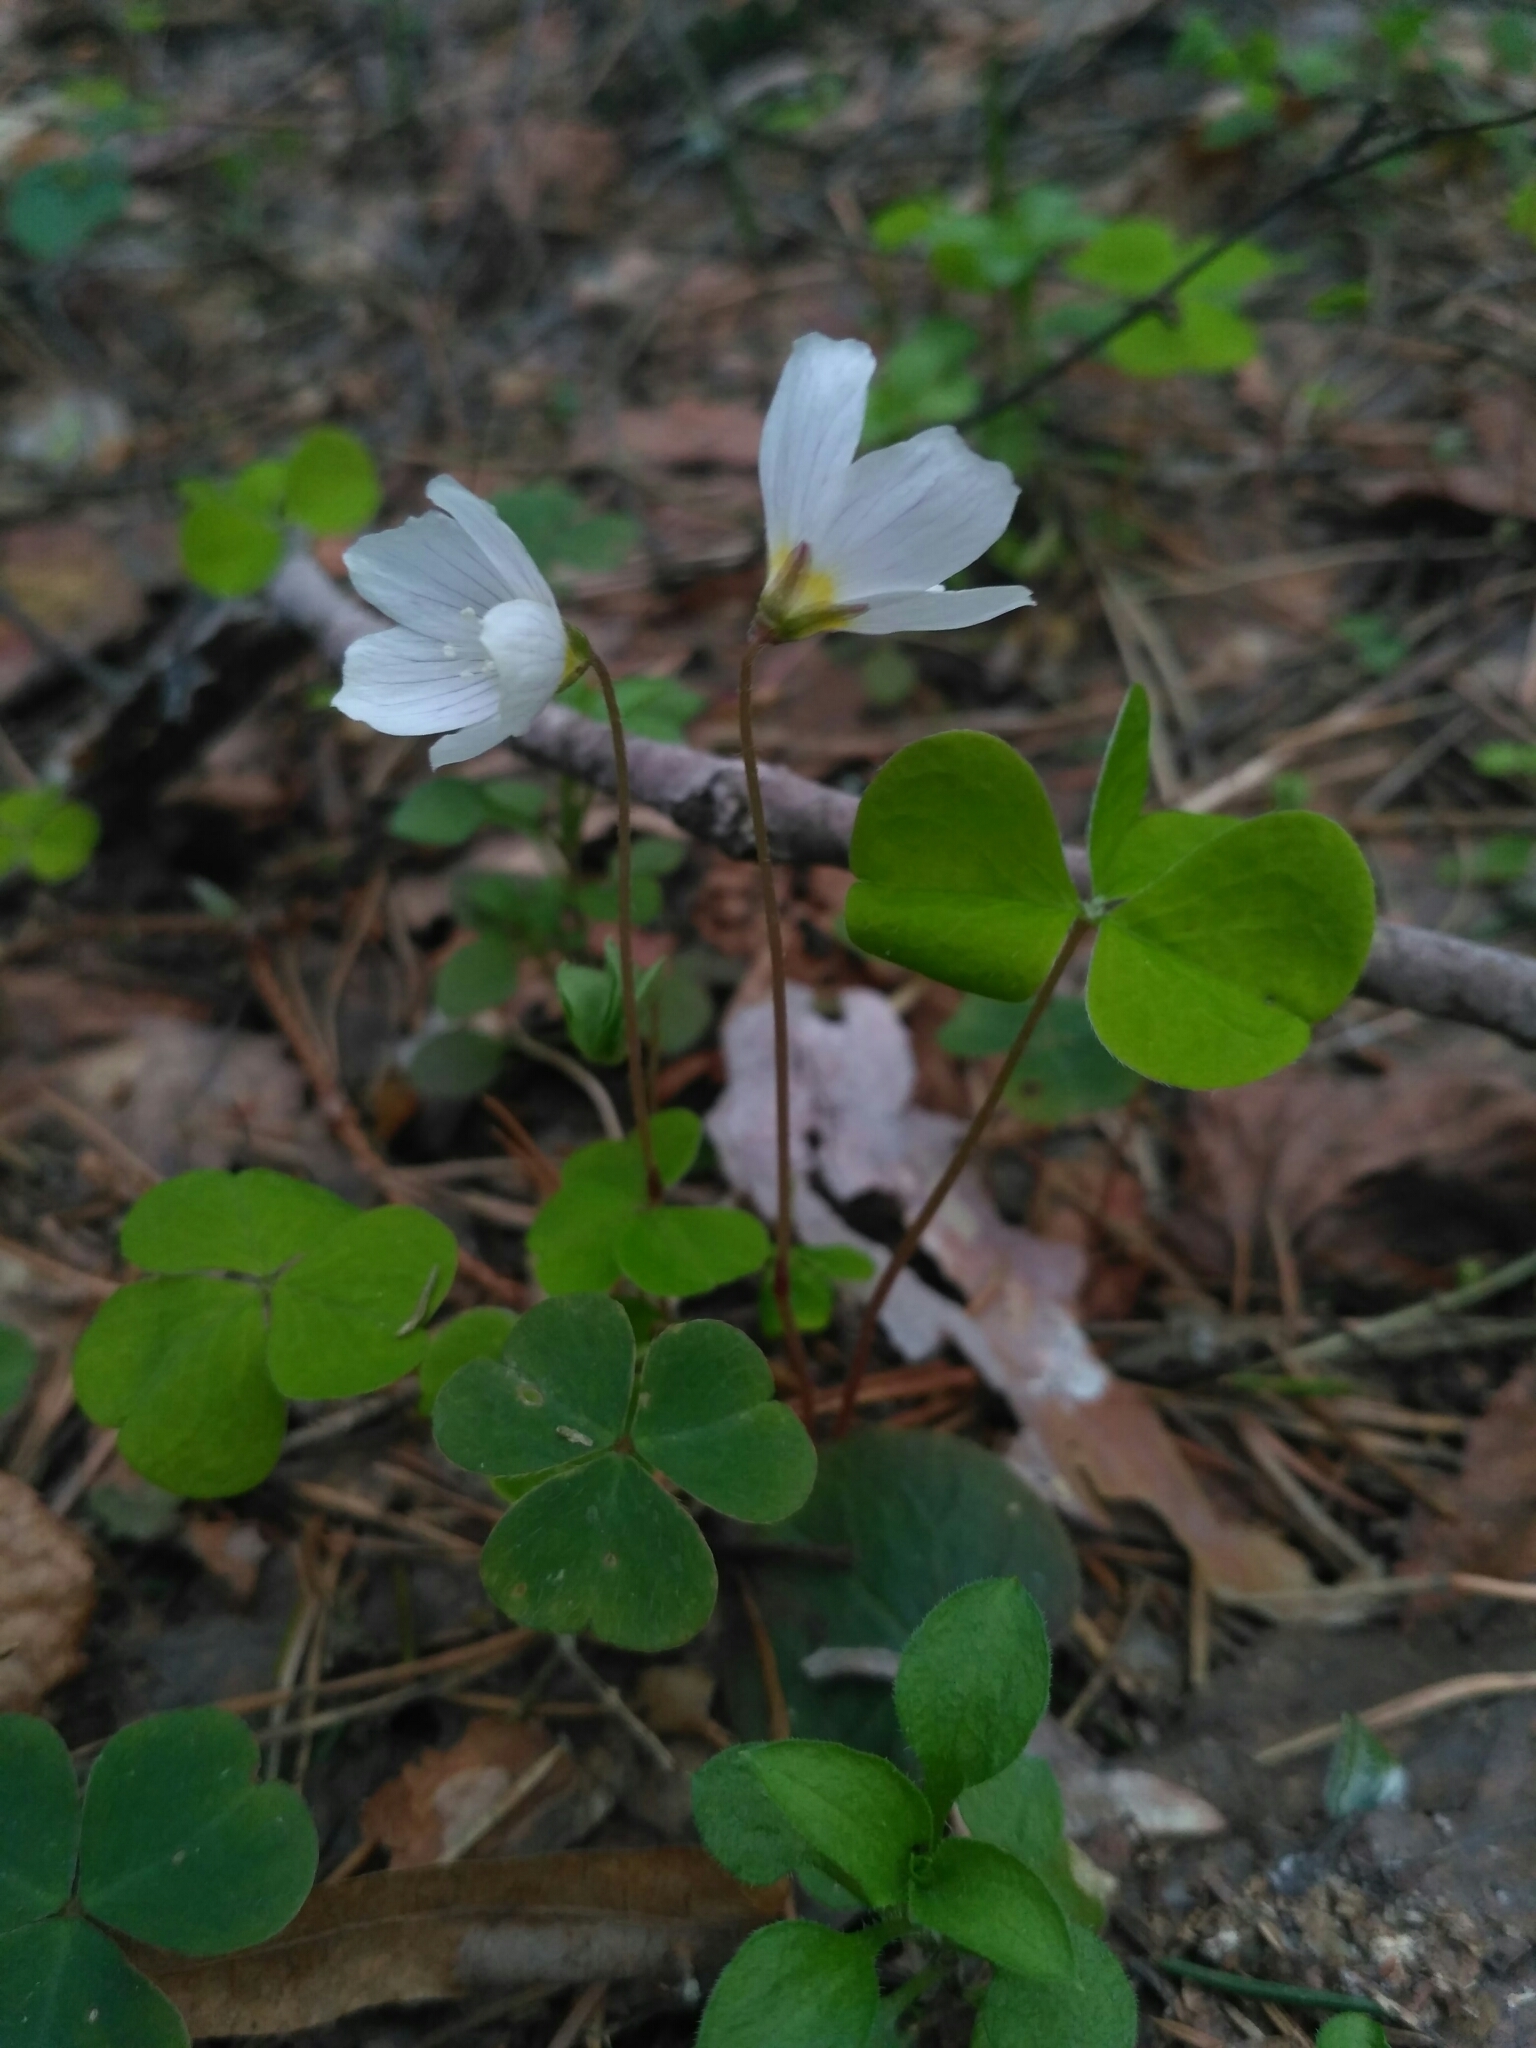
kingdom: Plantae
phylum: Tracheophyta
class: Magnoliopsida
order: Oxalidales
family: Oxalidaceae
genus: Oxalis
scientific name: Oxalis acetosella
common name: Wood-sorrel
